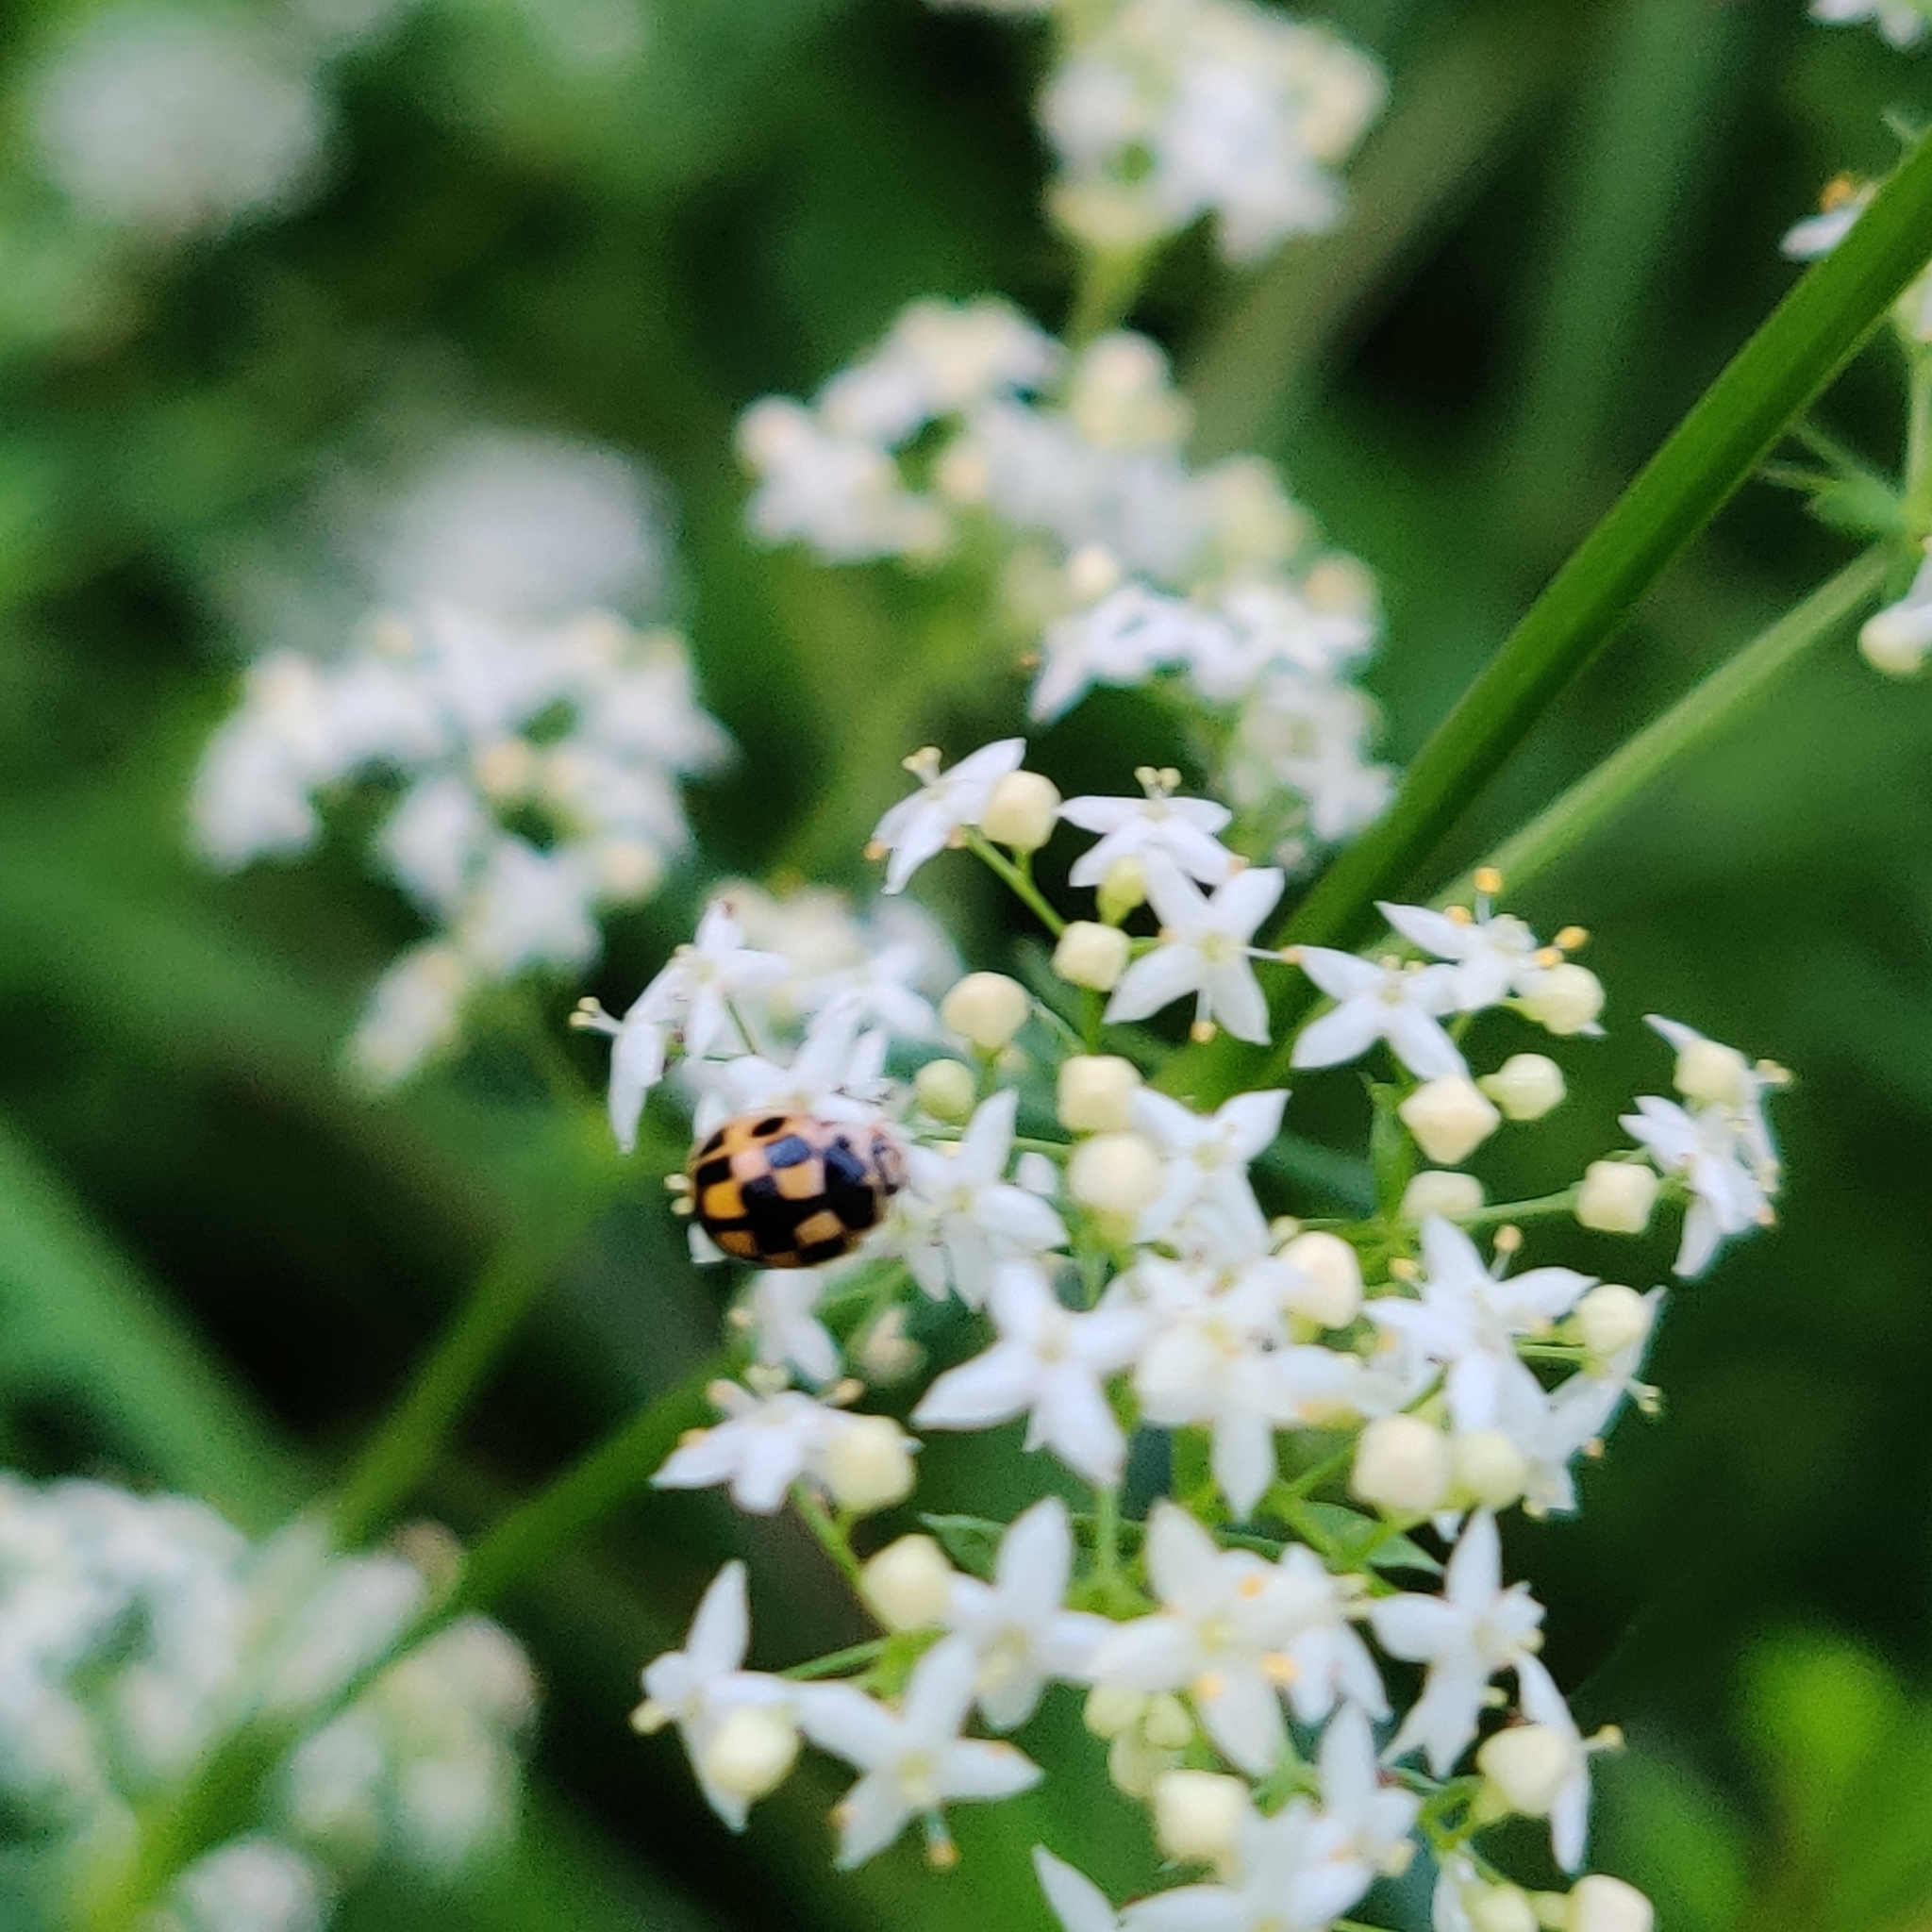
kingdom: Animalia
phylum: Arthropoda
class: Insecta
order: Coleoptera
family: Coccinellidae
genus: Propylaea
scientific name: Propylaea quatuordecimpunctata
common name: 14-spotted ladybird beetle
